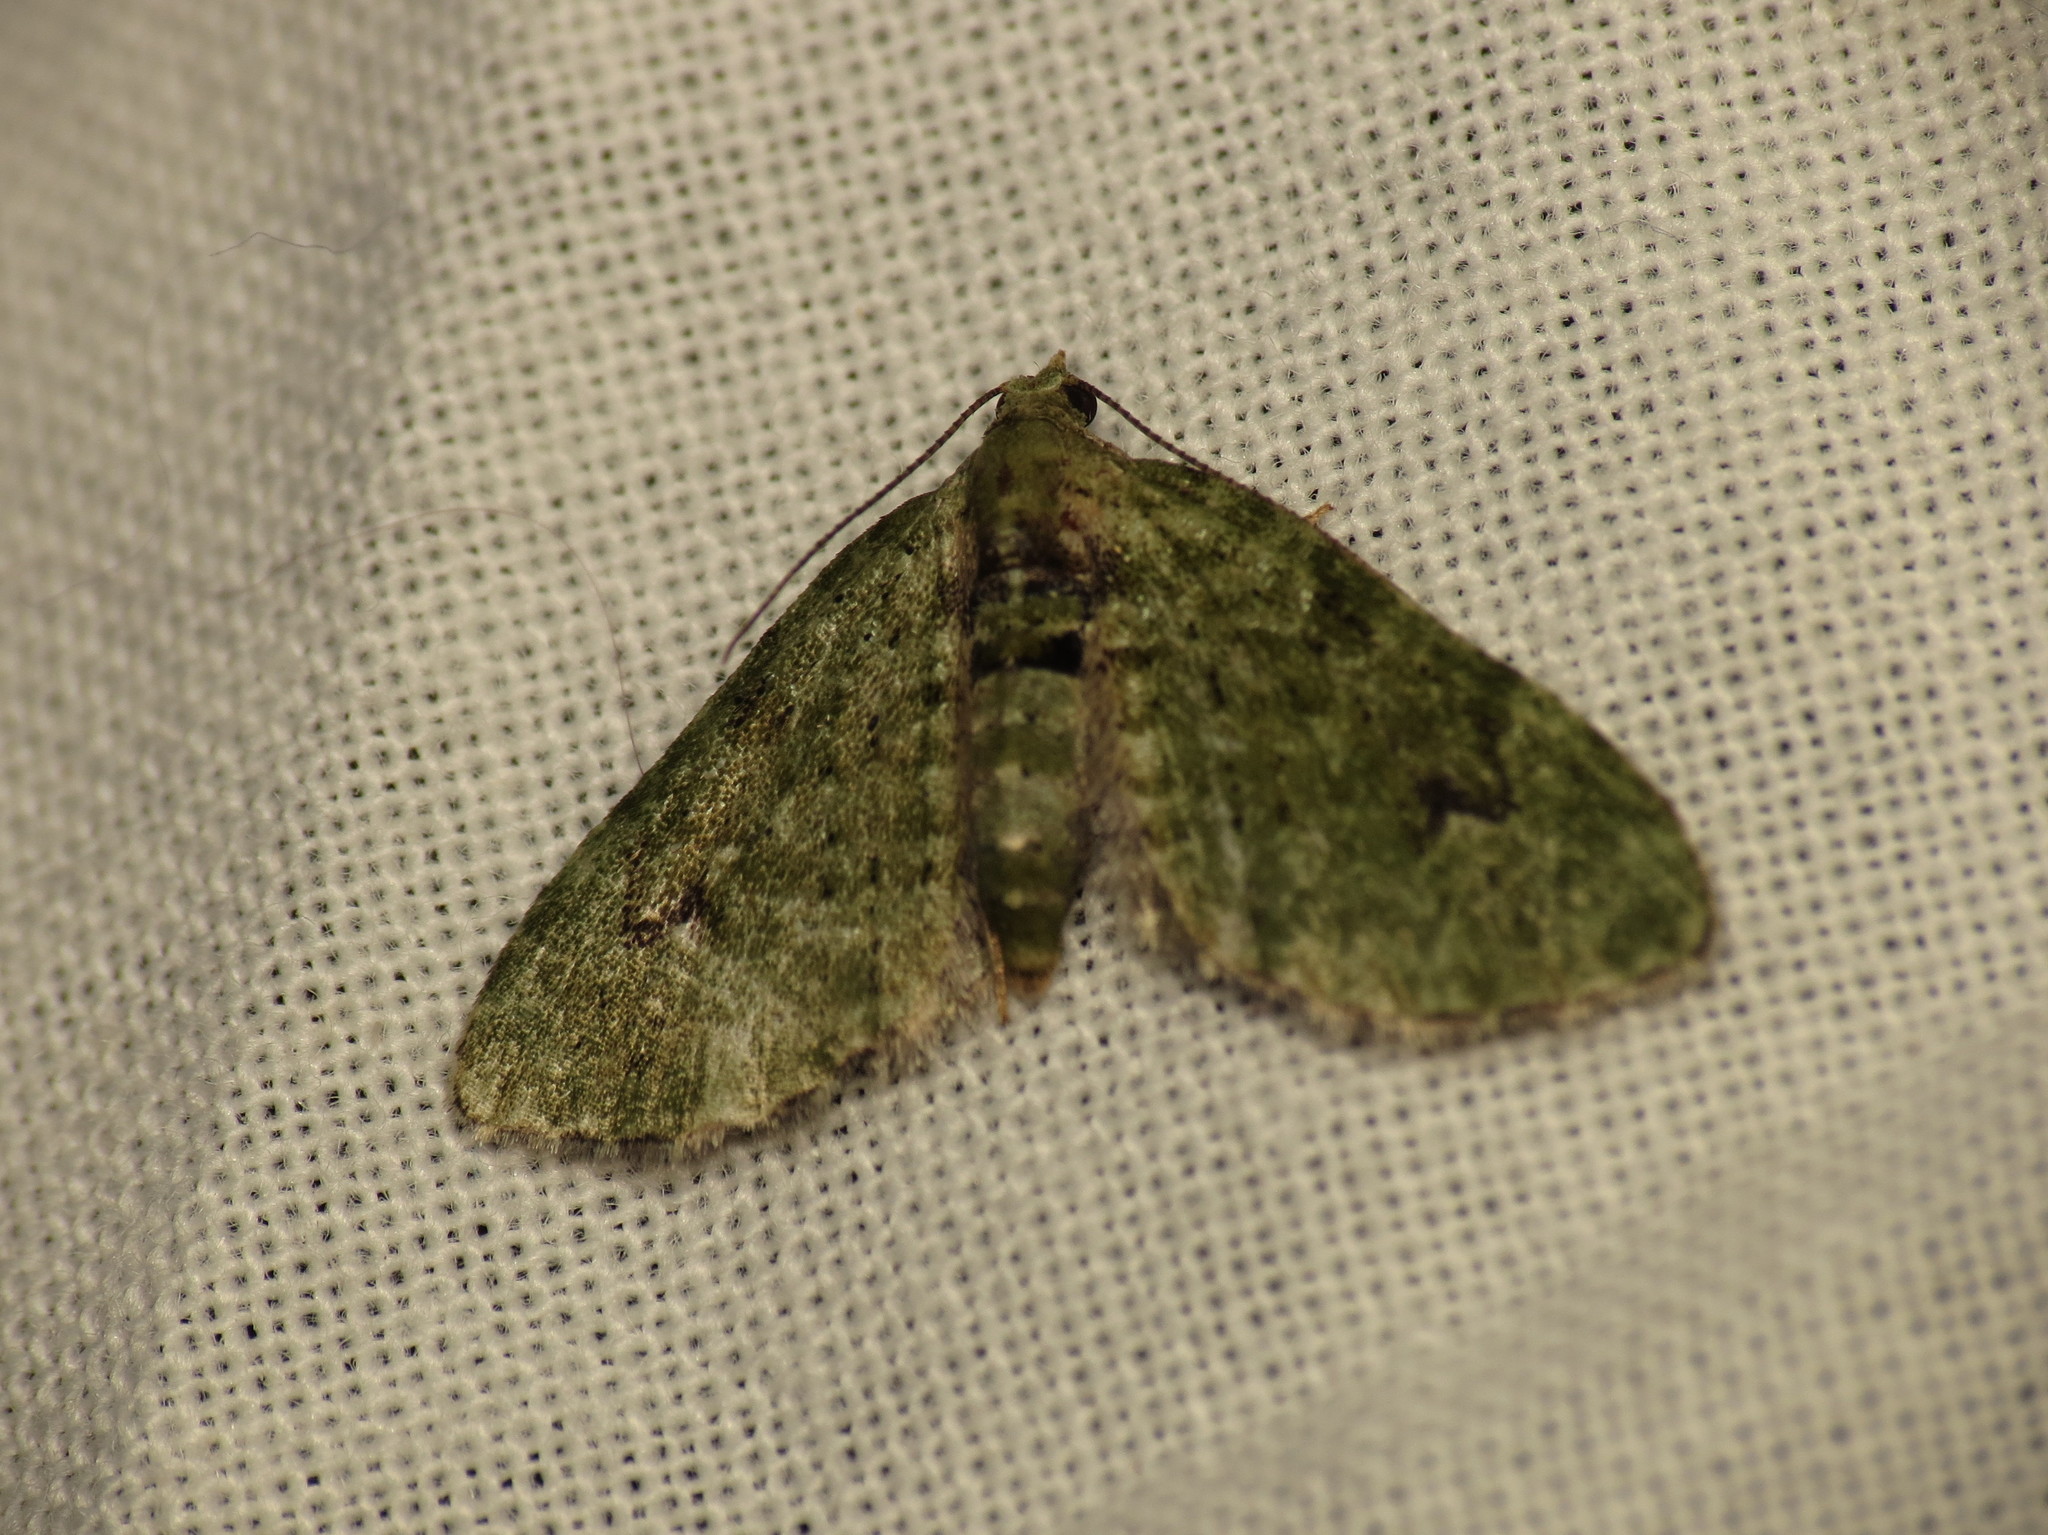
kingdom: Animalia
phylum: Arthropoda
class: Insecta
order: Lepidoptera
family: Geometridae
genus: Chloroclystis
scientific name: Chloroclystis v-ata
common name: V-pug
